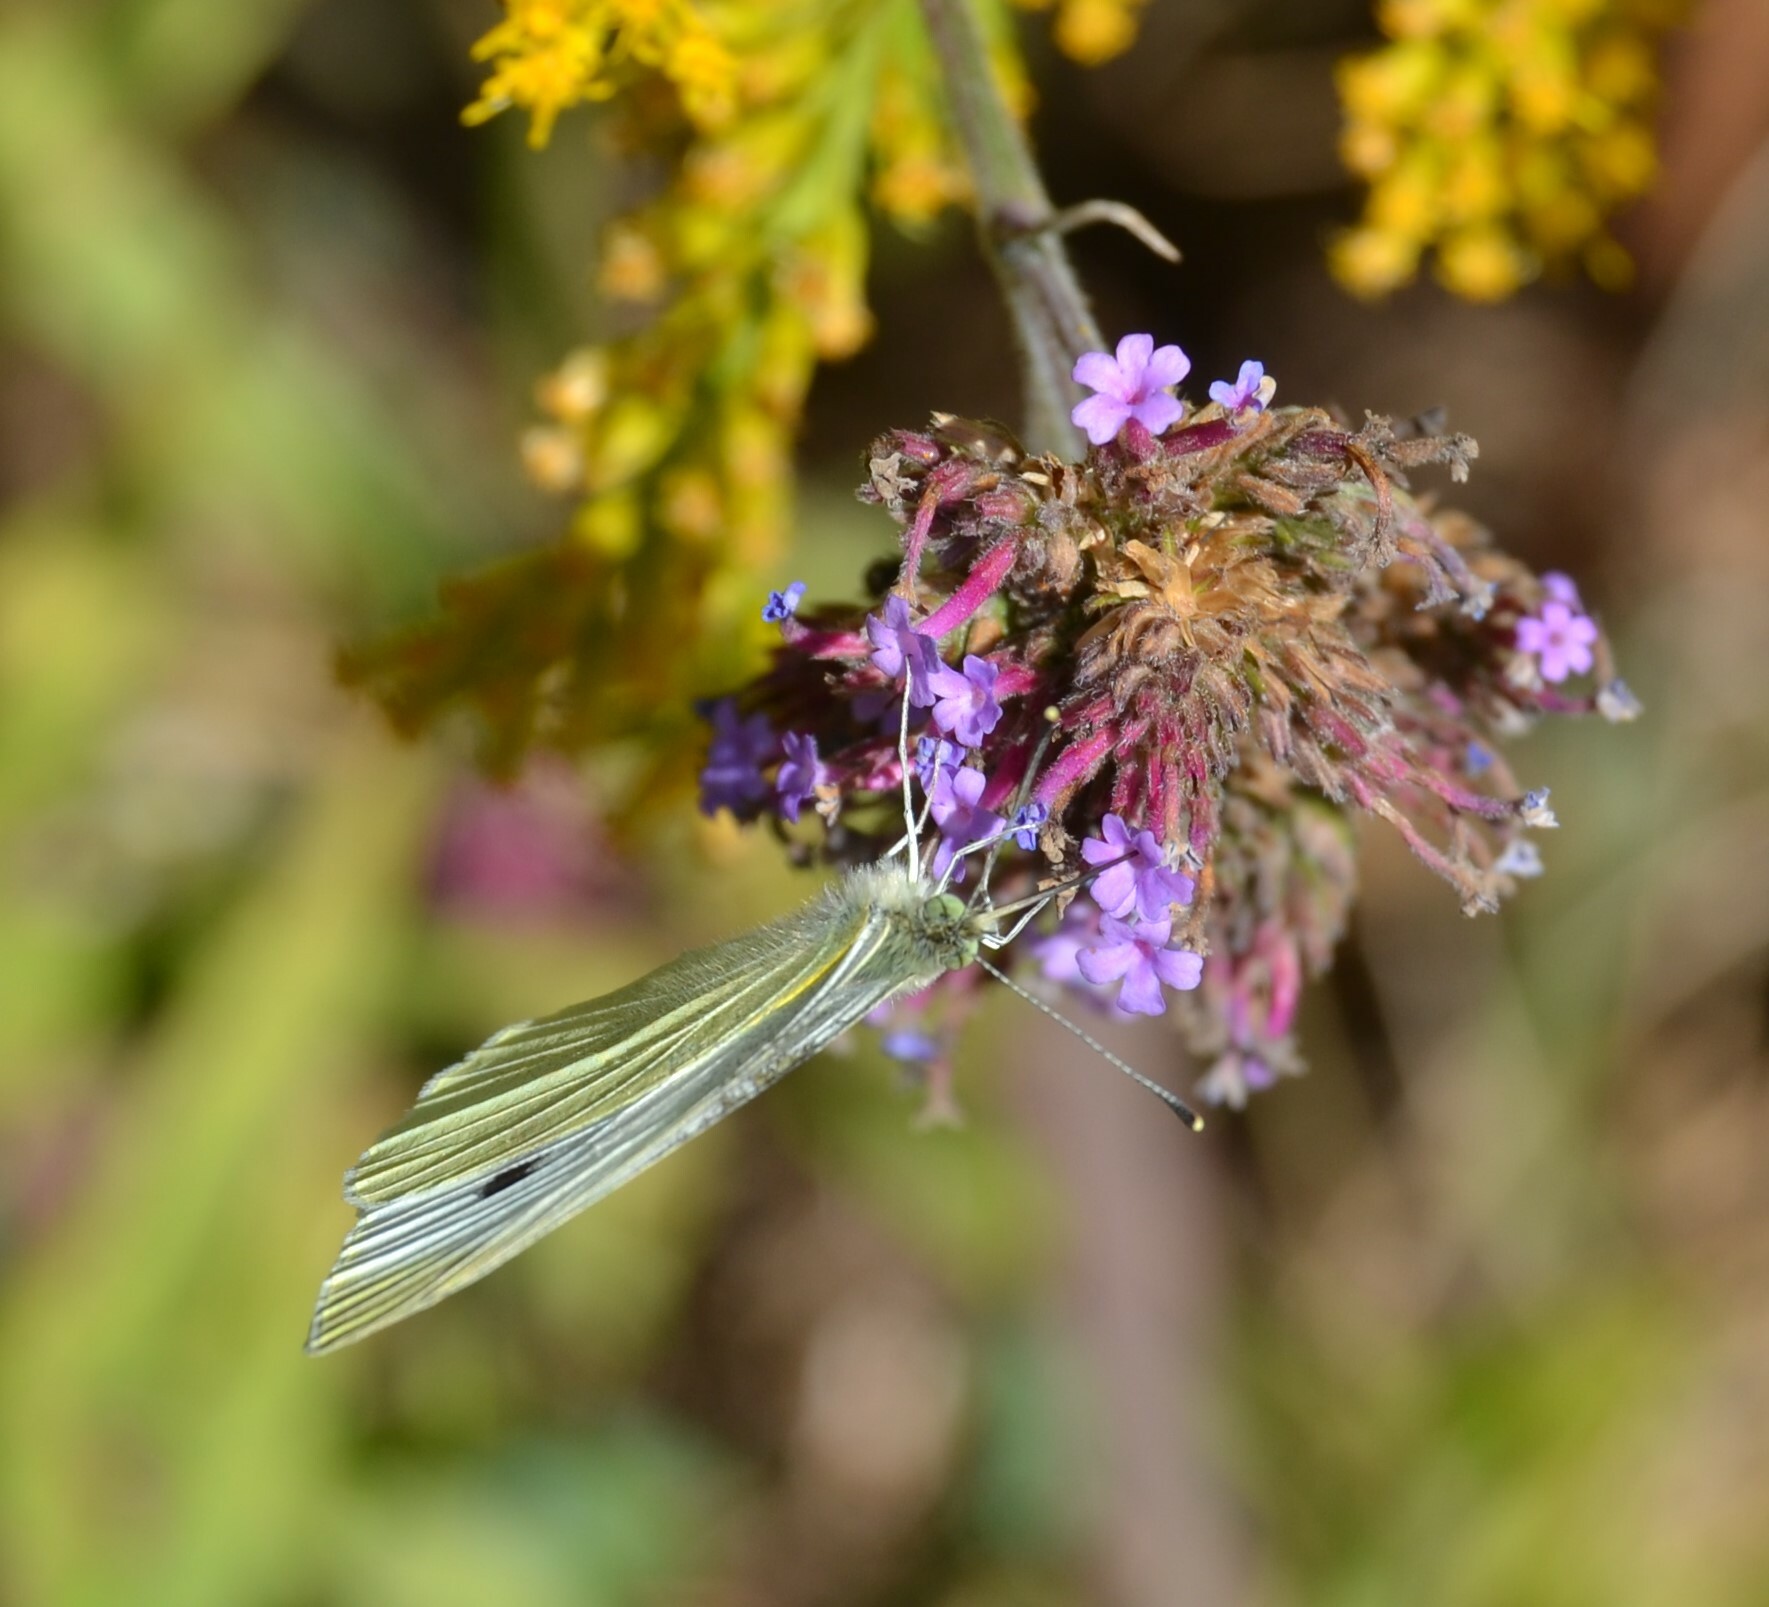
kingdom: Animalia
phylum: Arthropoda
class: Insecta
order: Lepidoptera
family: Pieridae
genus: Pieris
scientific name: Pieris rapae
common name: Small white
